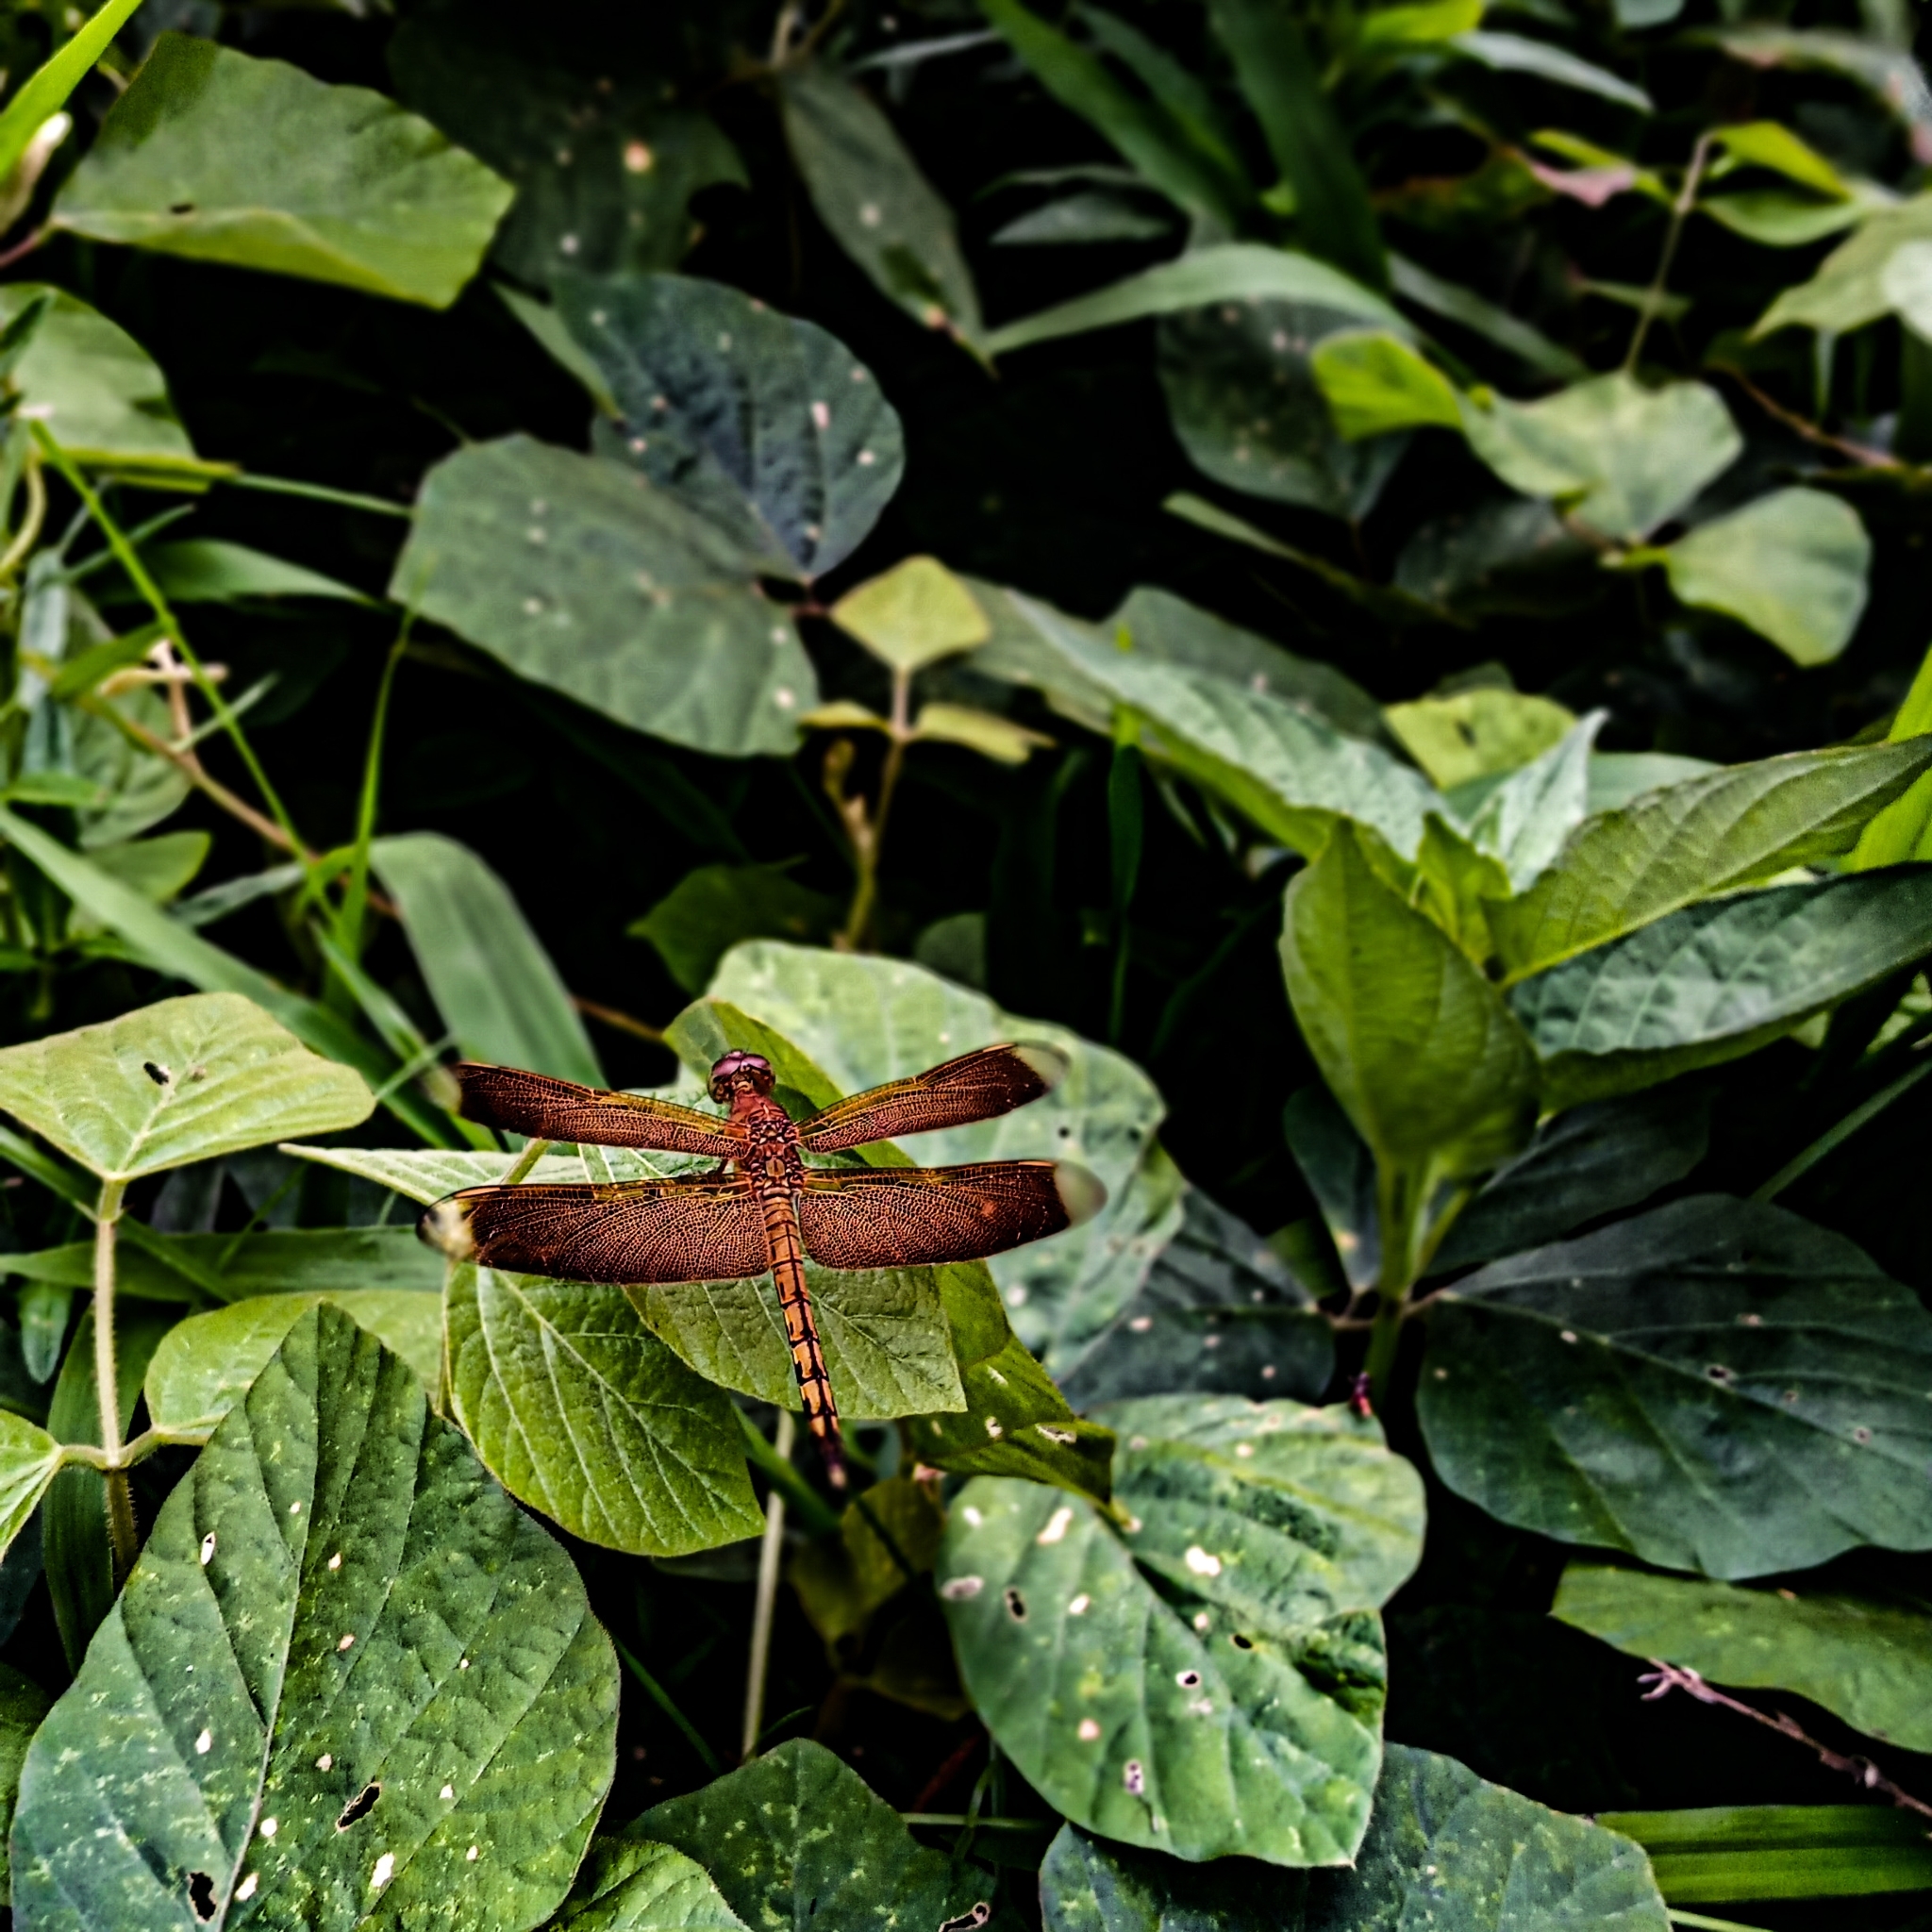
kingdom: Animalia
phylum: Arthropoda
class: Insecta
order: Odonata
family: Libellulidae
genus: Neurothemis
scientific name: Neurothemis terminata
